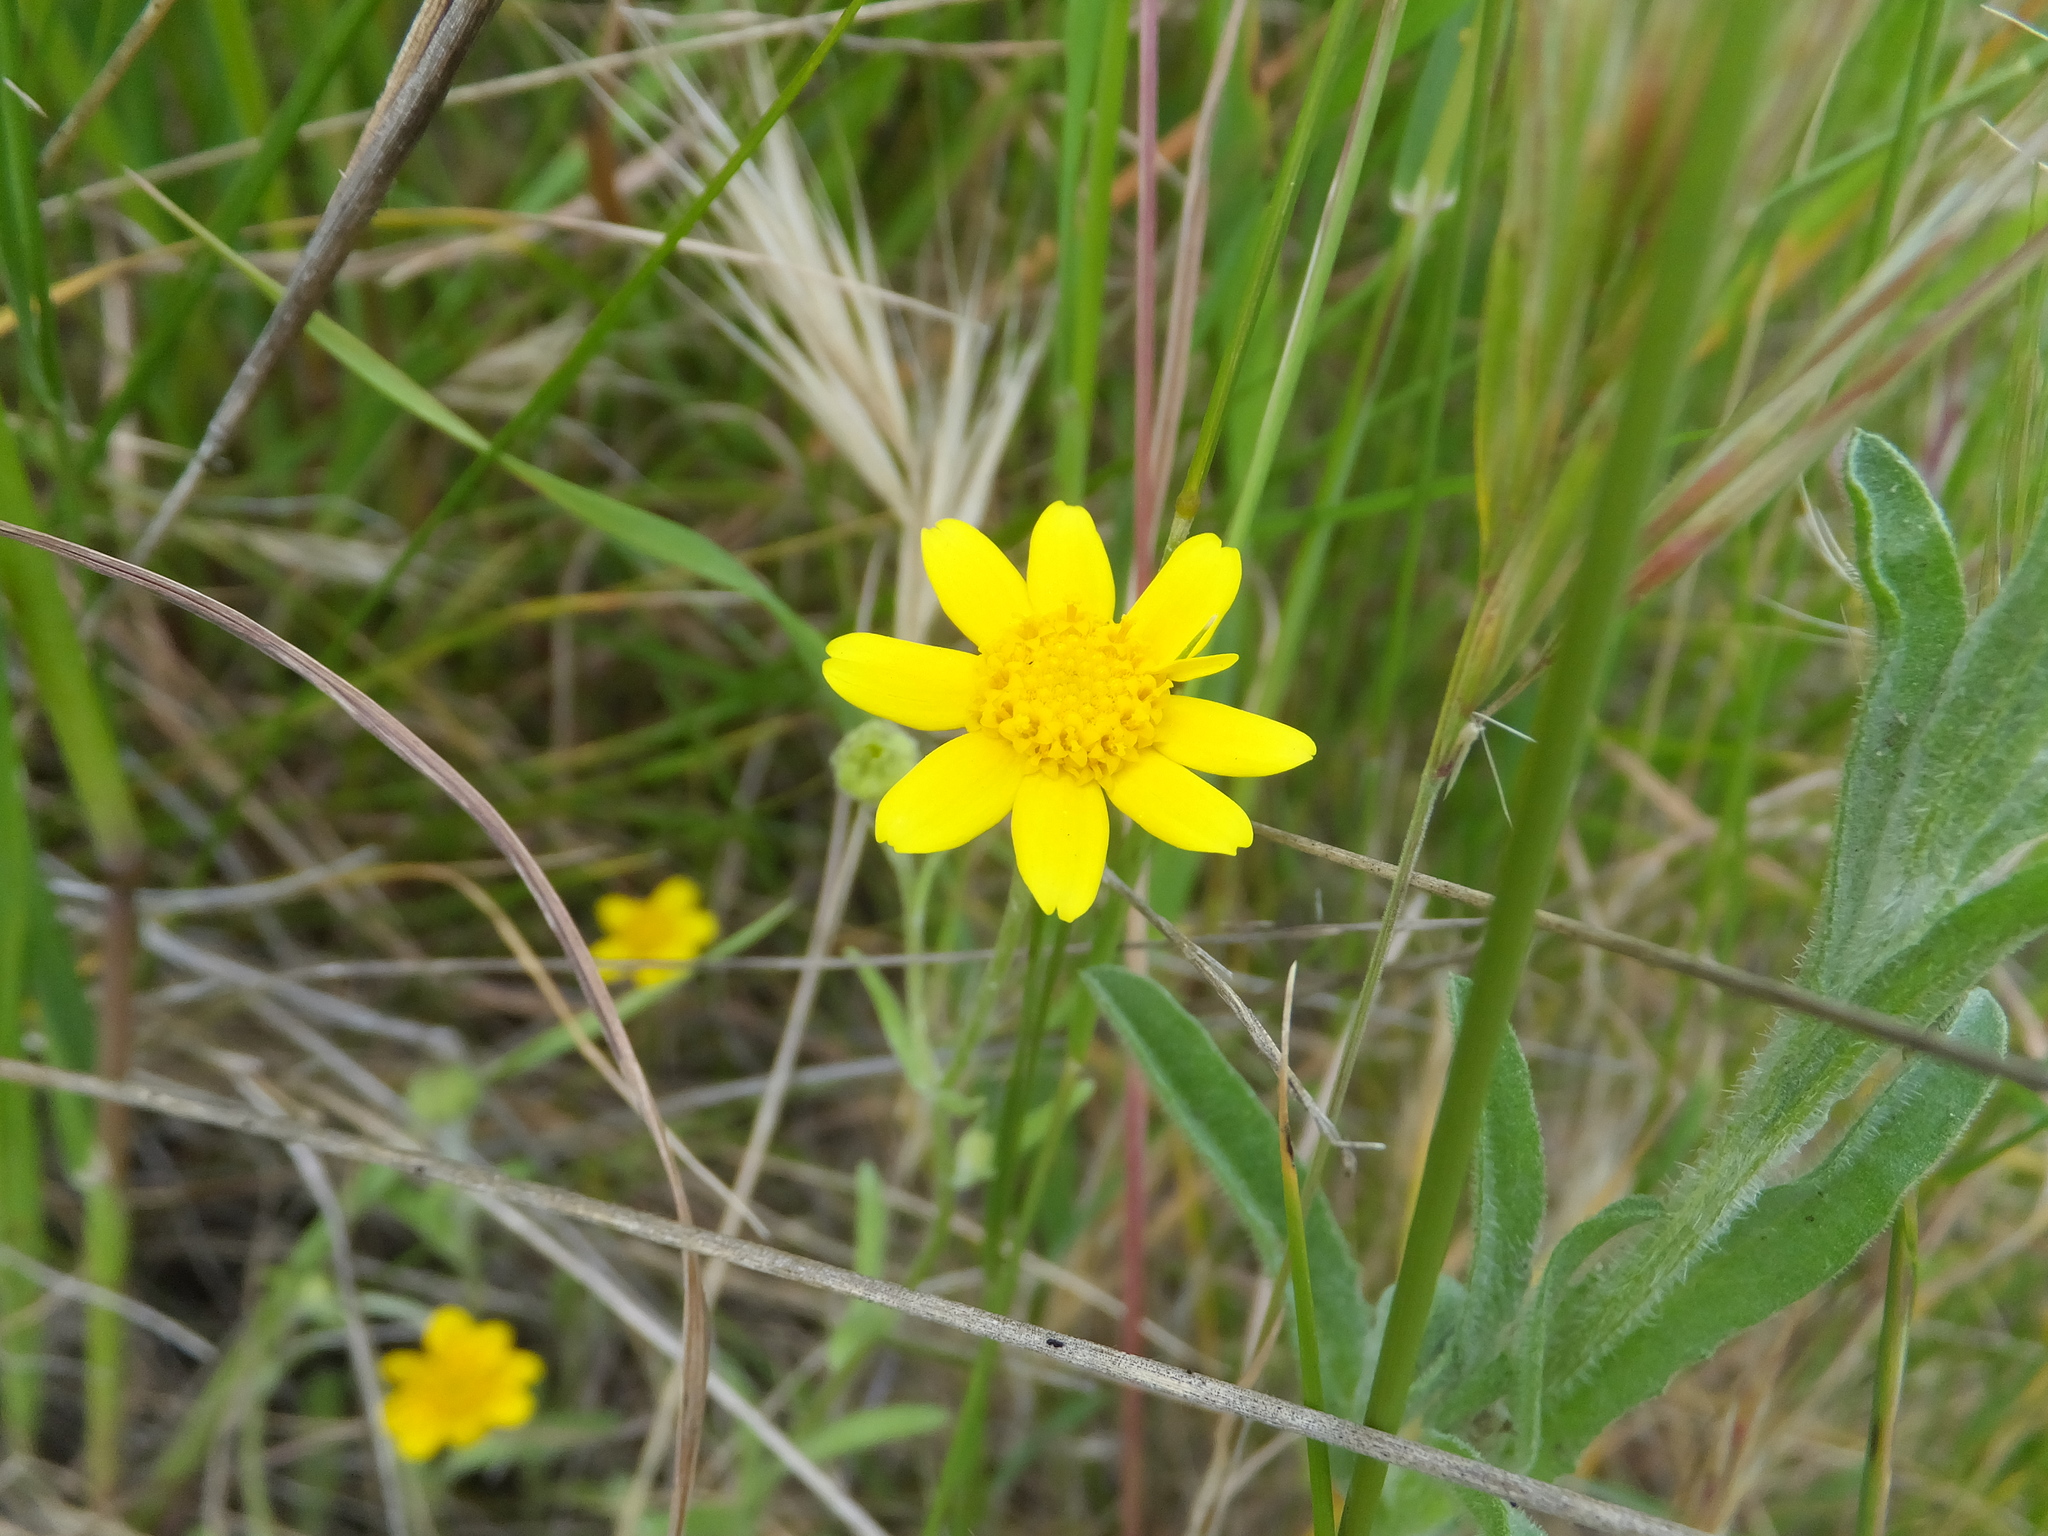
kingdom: Plantae
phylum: Tracheophyta
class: Magnoliopsida
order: Asterales
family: Asteraceae
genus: Monolopia
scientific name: Monolopia gracilens
